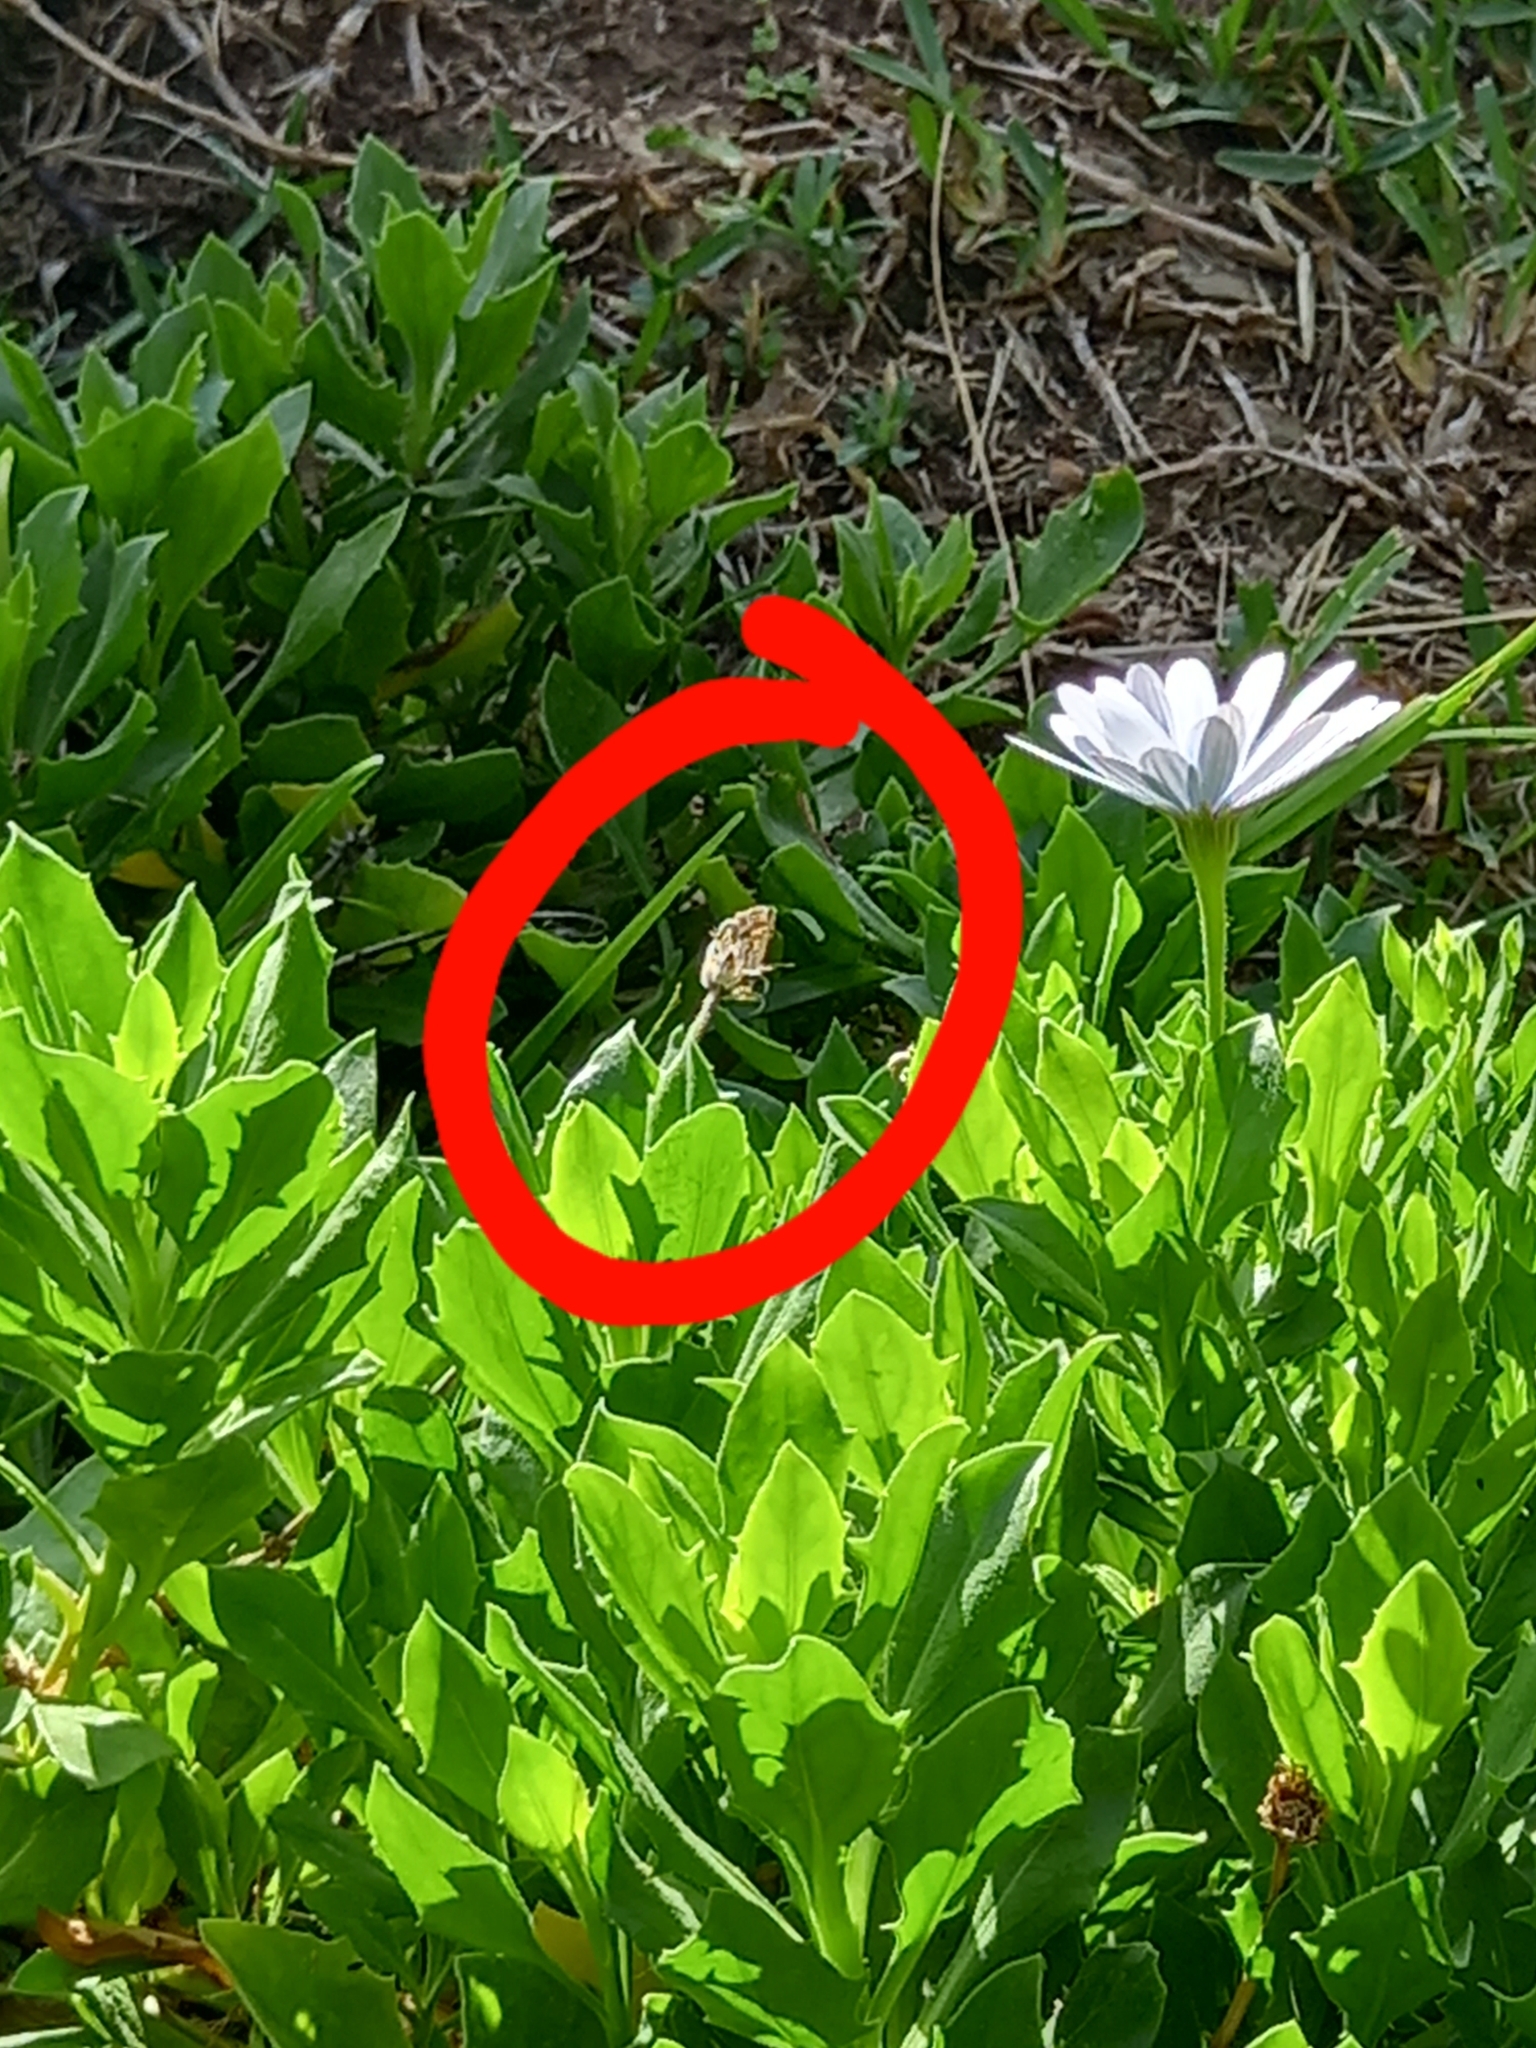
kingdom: Animalia
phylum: Arthropoda
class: Insecta
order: Lepidoptera
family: Lycaenidae
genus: Cacyreus
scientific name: Cacyreus marshalli
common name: Geranium bronze
